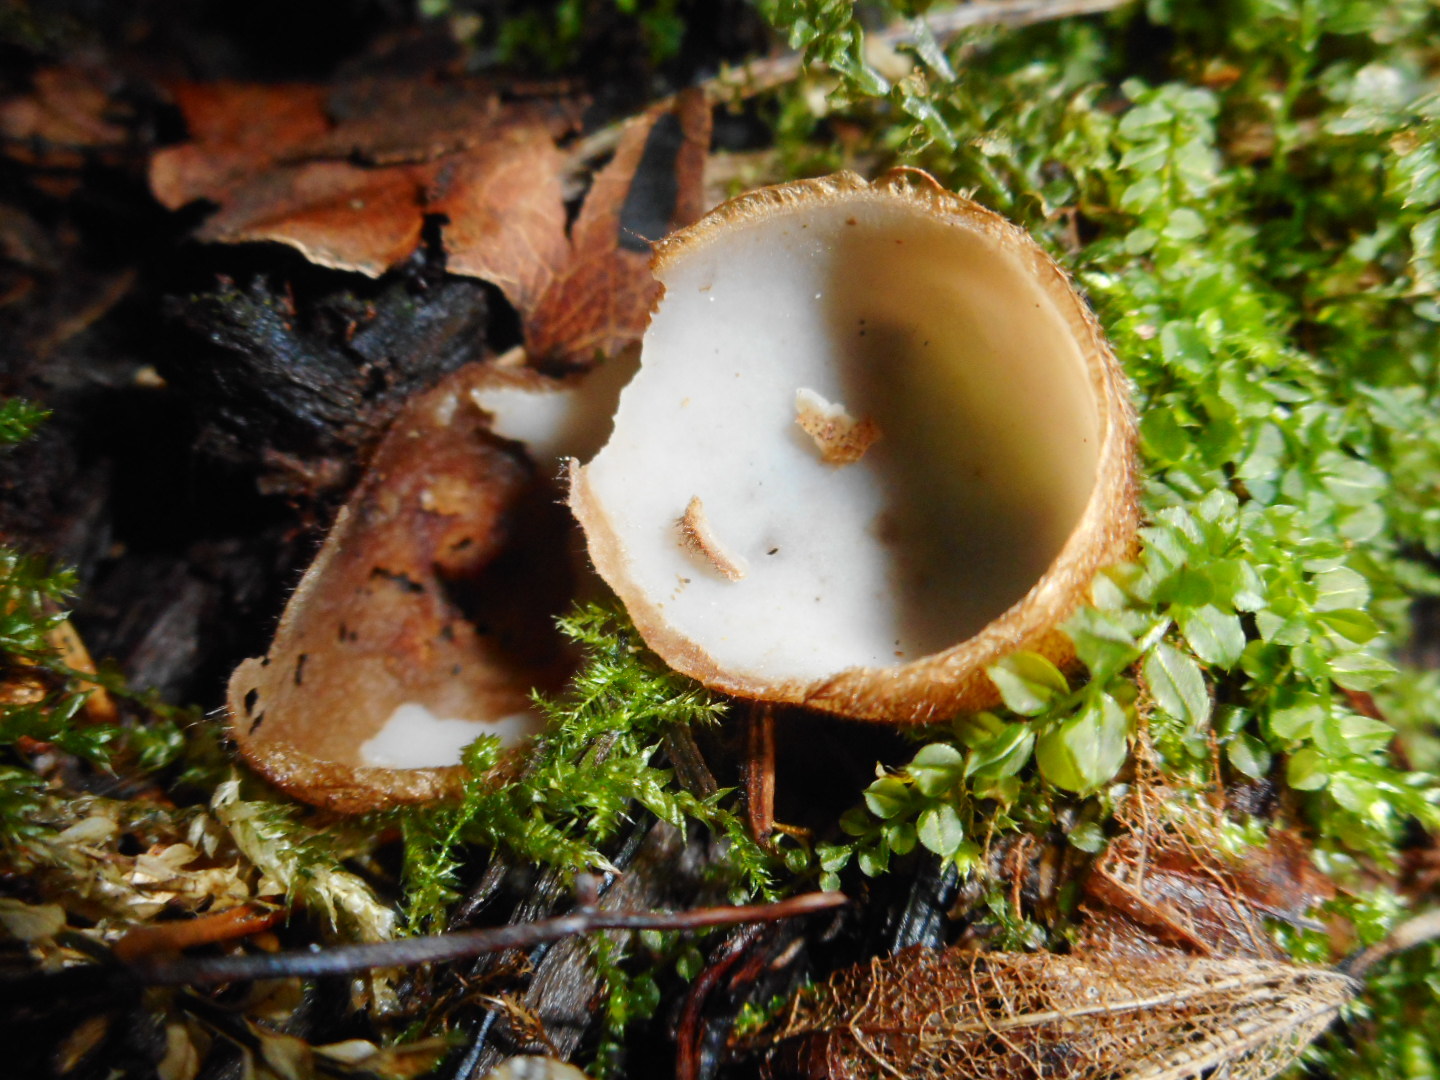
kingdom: Fungi
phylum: Ascomycota
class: Pezizomycetes
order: Pezizales
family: Pyronemataceae
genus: Humaria
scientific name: Humaria hemisphaerica
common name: Glazed cup
